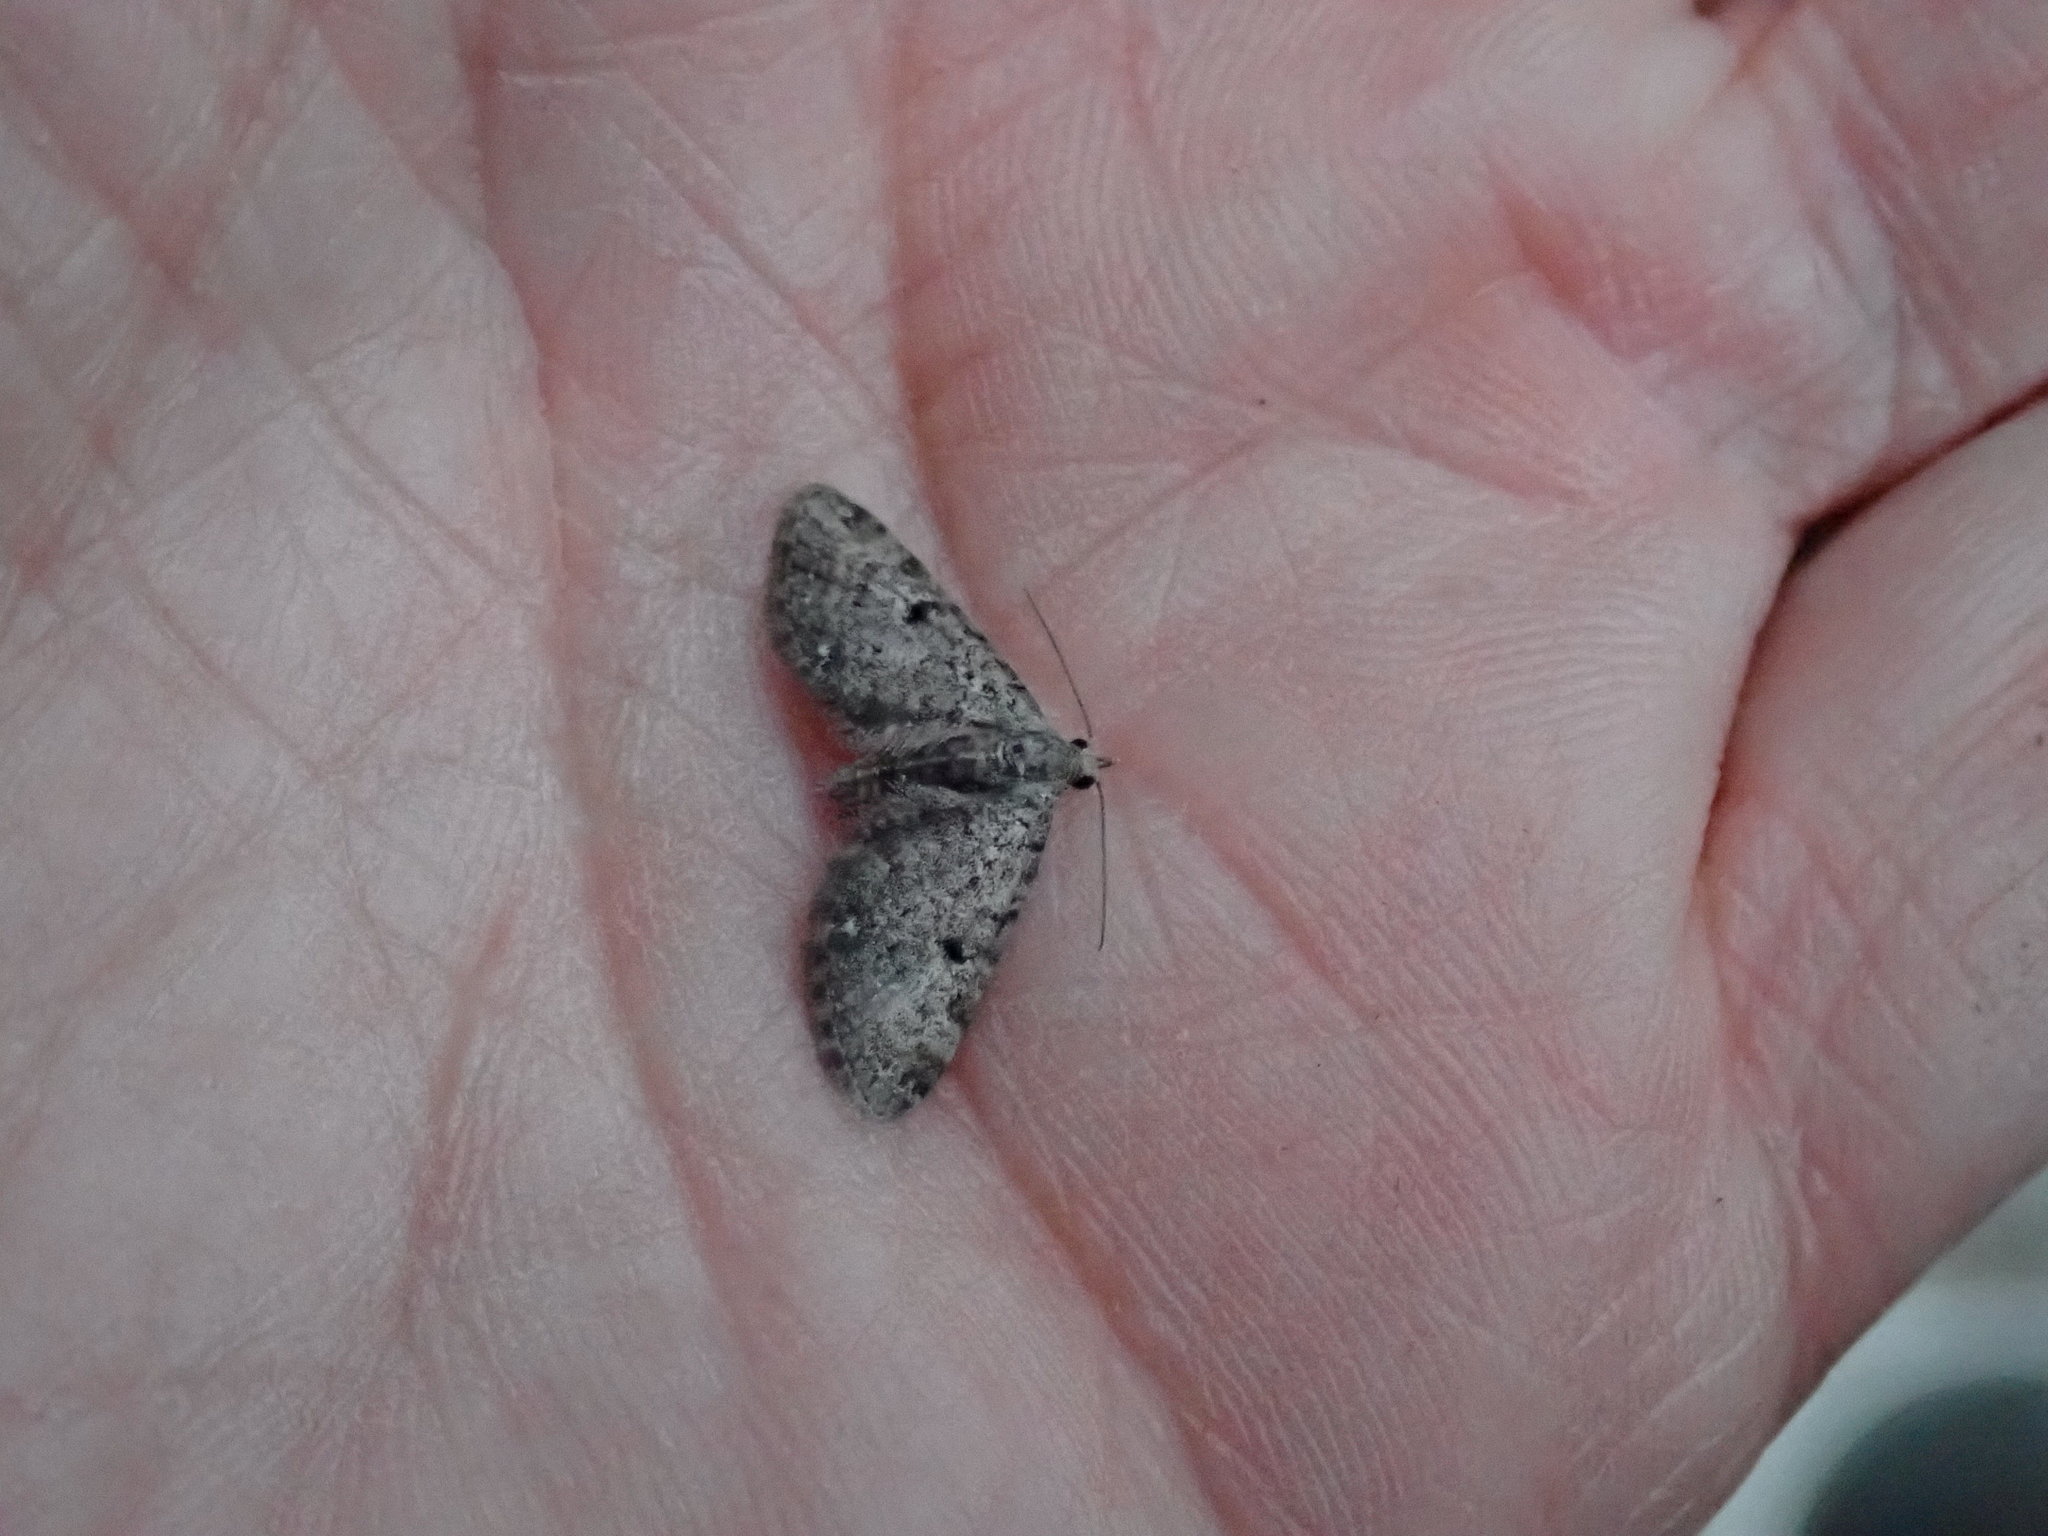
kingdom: Animalia
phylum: Arthropoda
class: Insecta
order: Lepidoptera
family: Geometridae
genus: Eupithecia
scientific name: Eupithecia miserulata
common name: Common eupithecia
